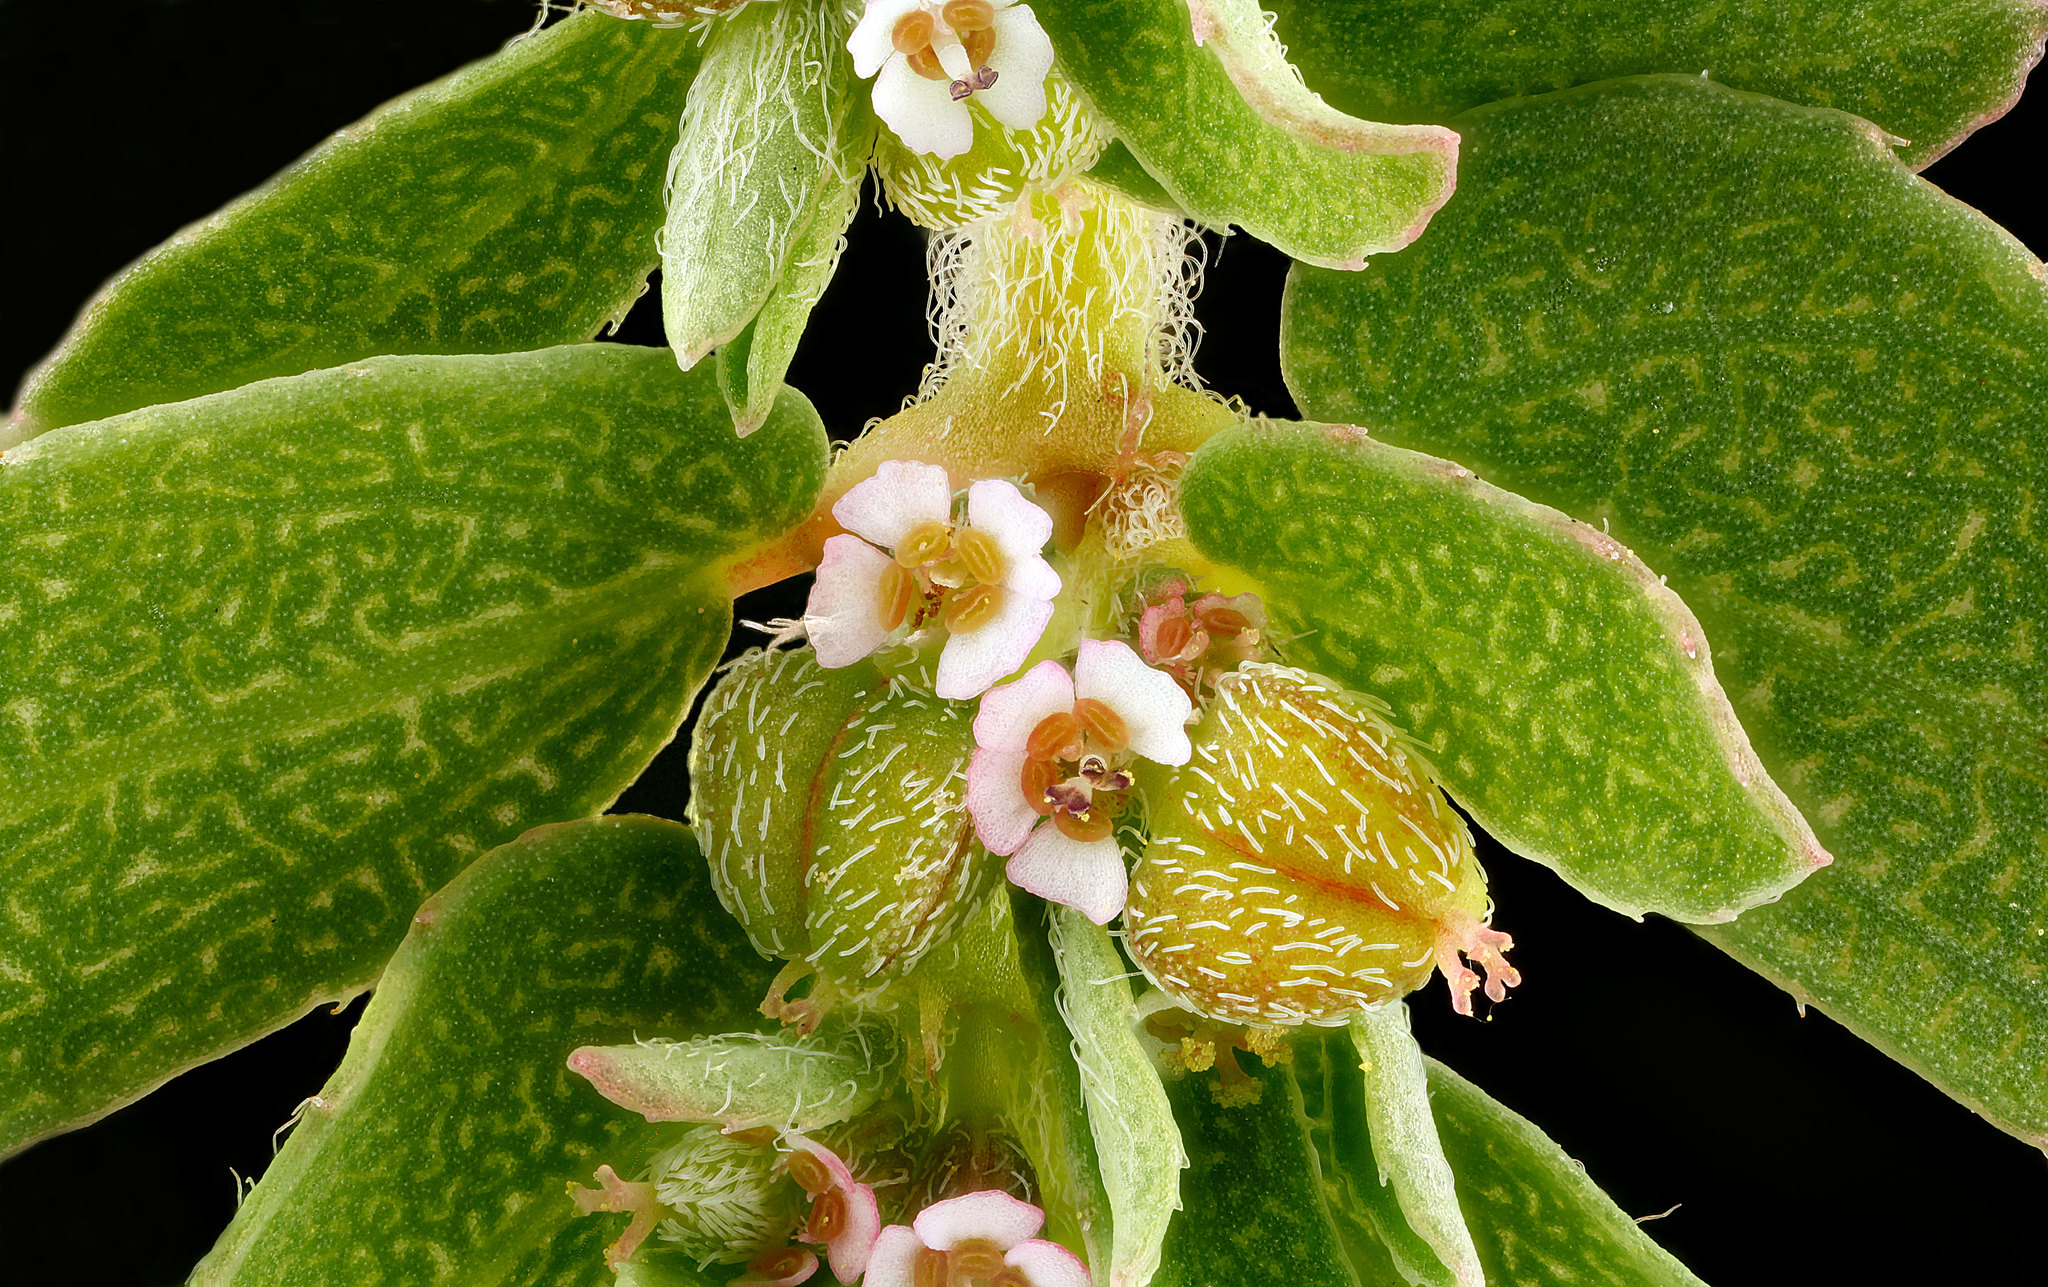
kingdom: Plantae
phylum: Tracheophyta
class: Magnoliopsida
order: Malpighiales
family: Euphorbiaceae
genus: Euphorbia
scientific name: Euphorbia maculata
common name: Spotted spurge
